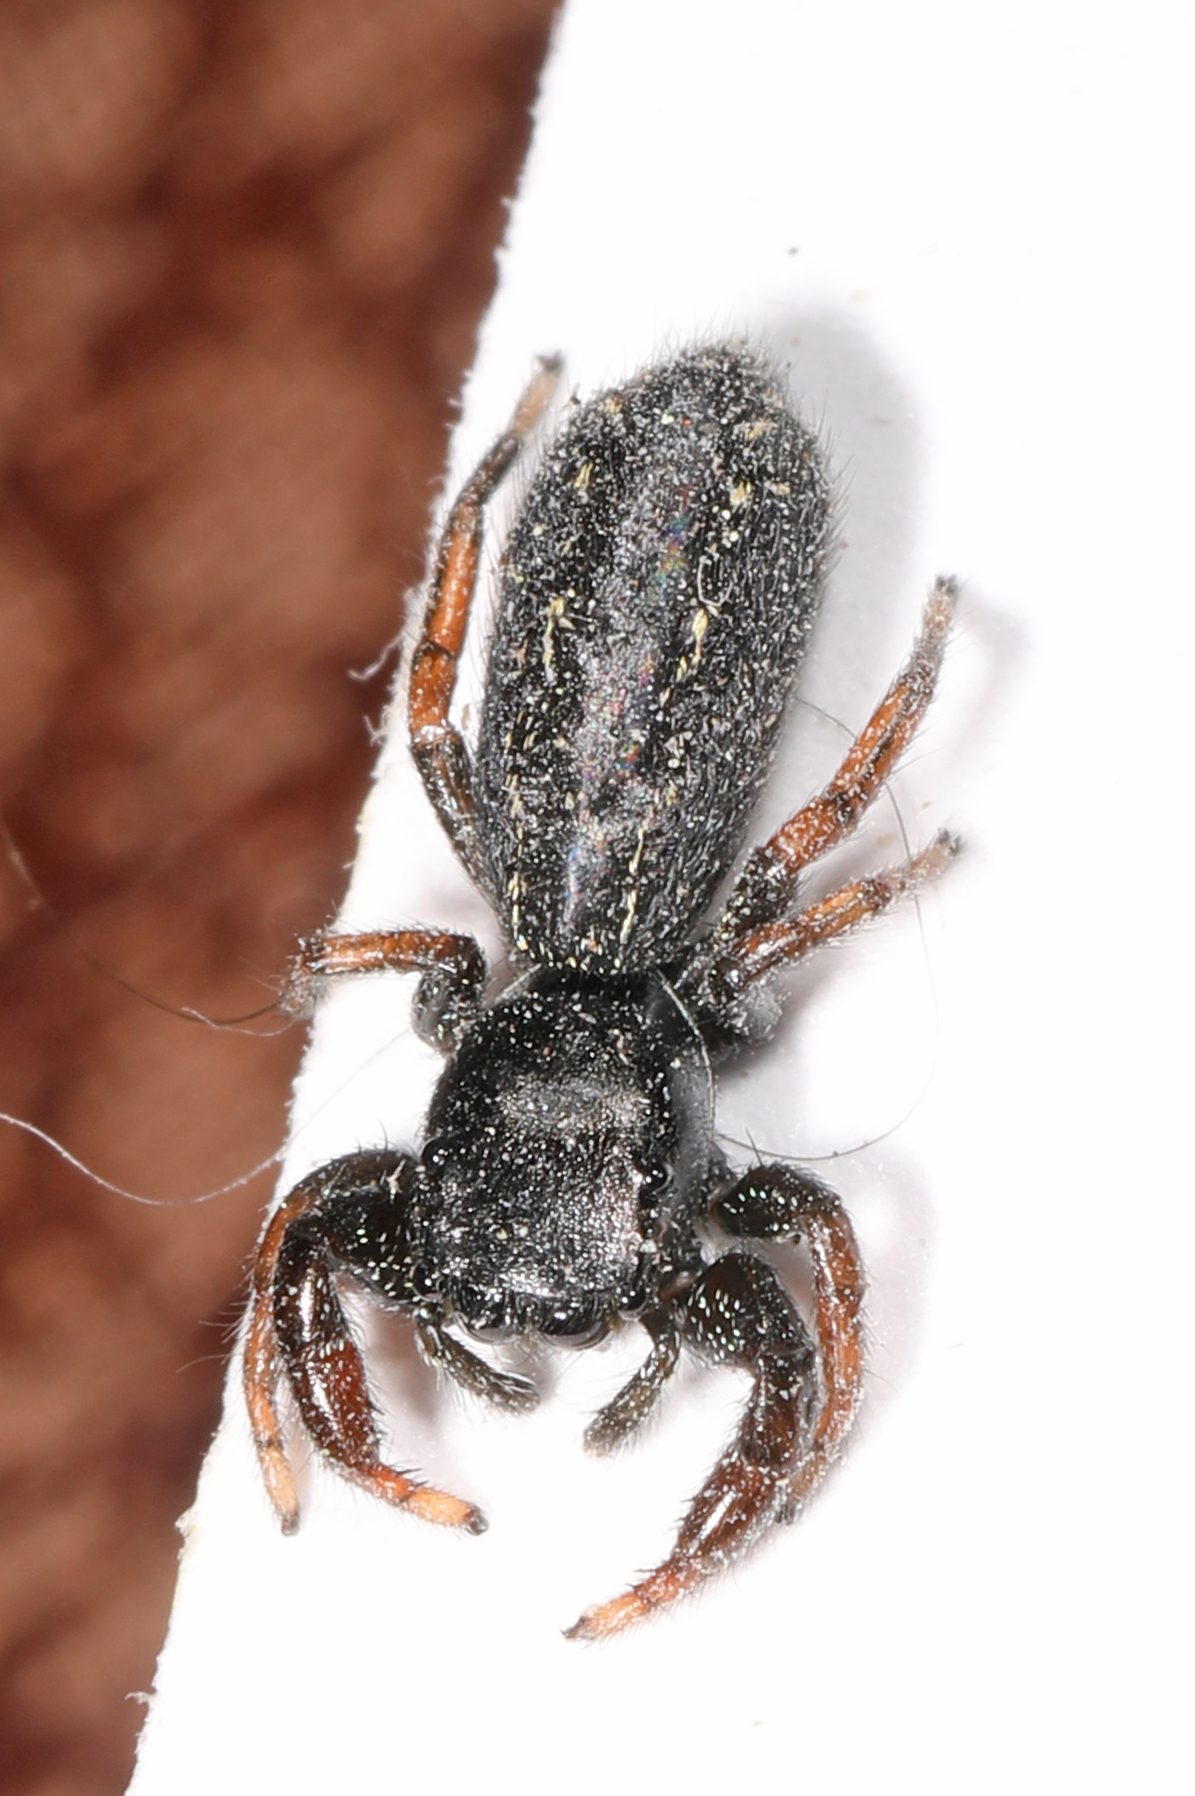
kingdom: Animalia
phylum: Arthropoda
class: Arachnida
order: Araneae
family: Salticidae
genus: Metacyrba
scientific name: Metacyrba taeniola
